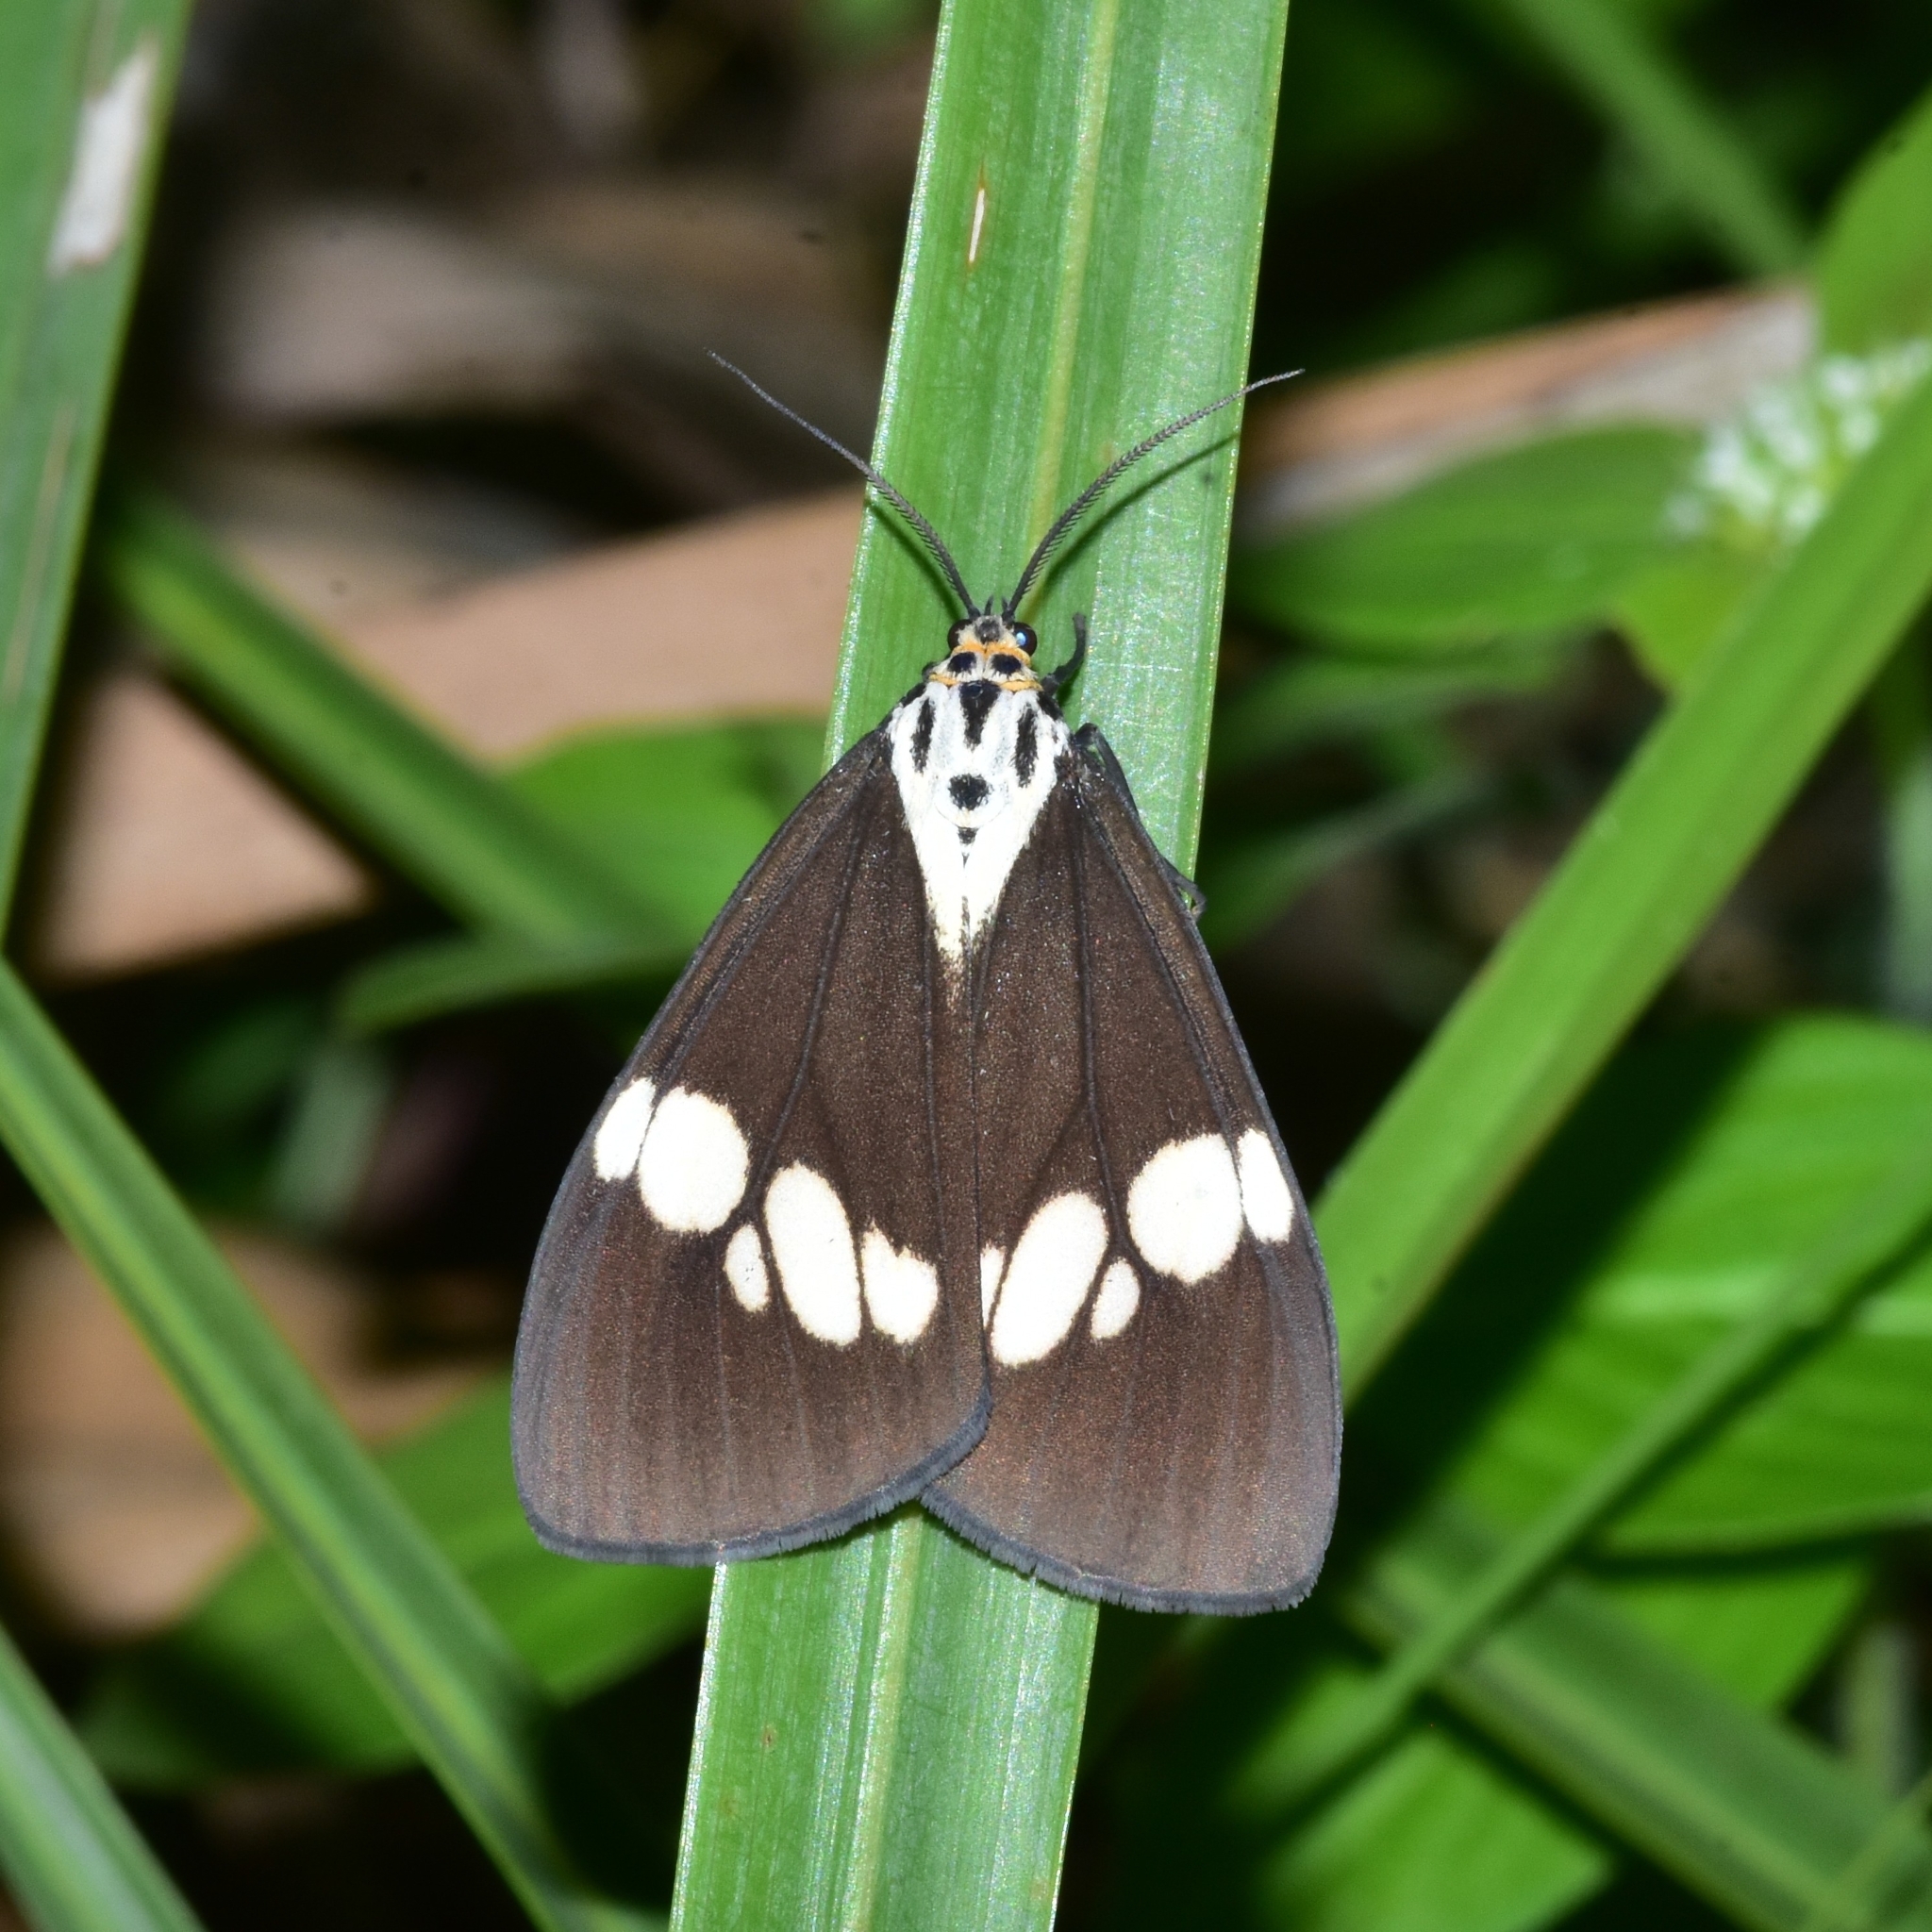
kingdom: Animalia
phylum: Arthropoda
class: Insecta
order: Lepidoptera
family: Erebidae
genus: Nyctemera
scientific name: Nyctemera lacticinia
